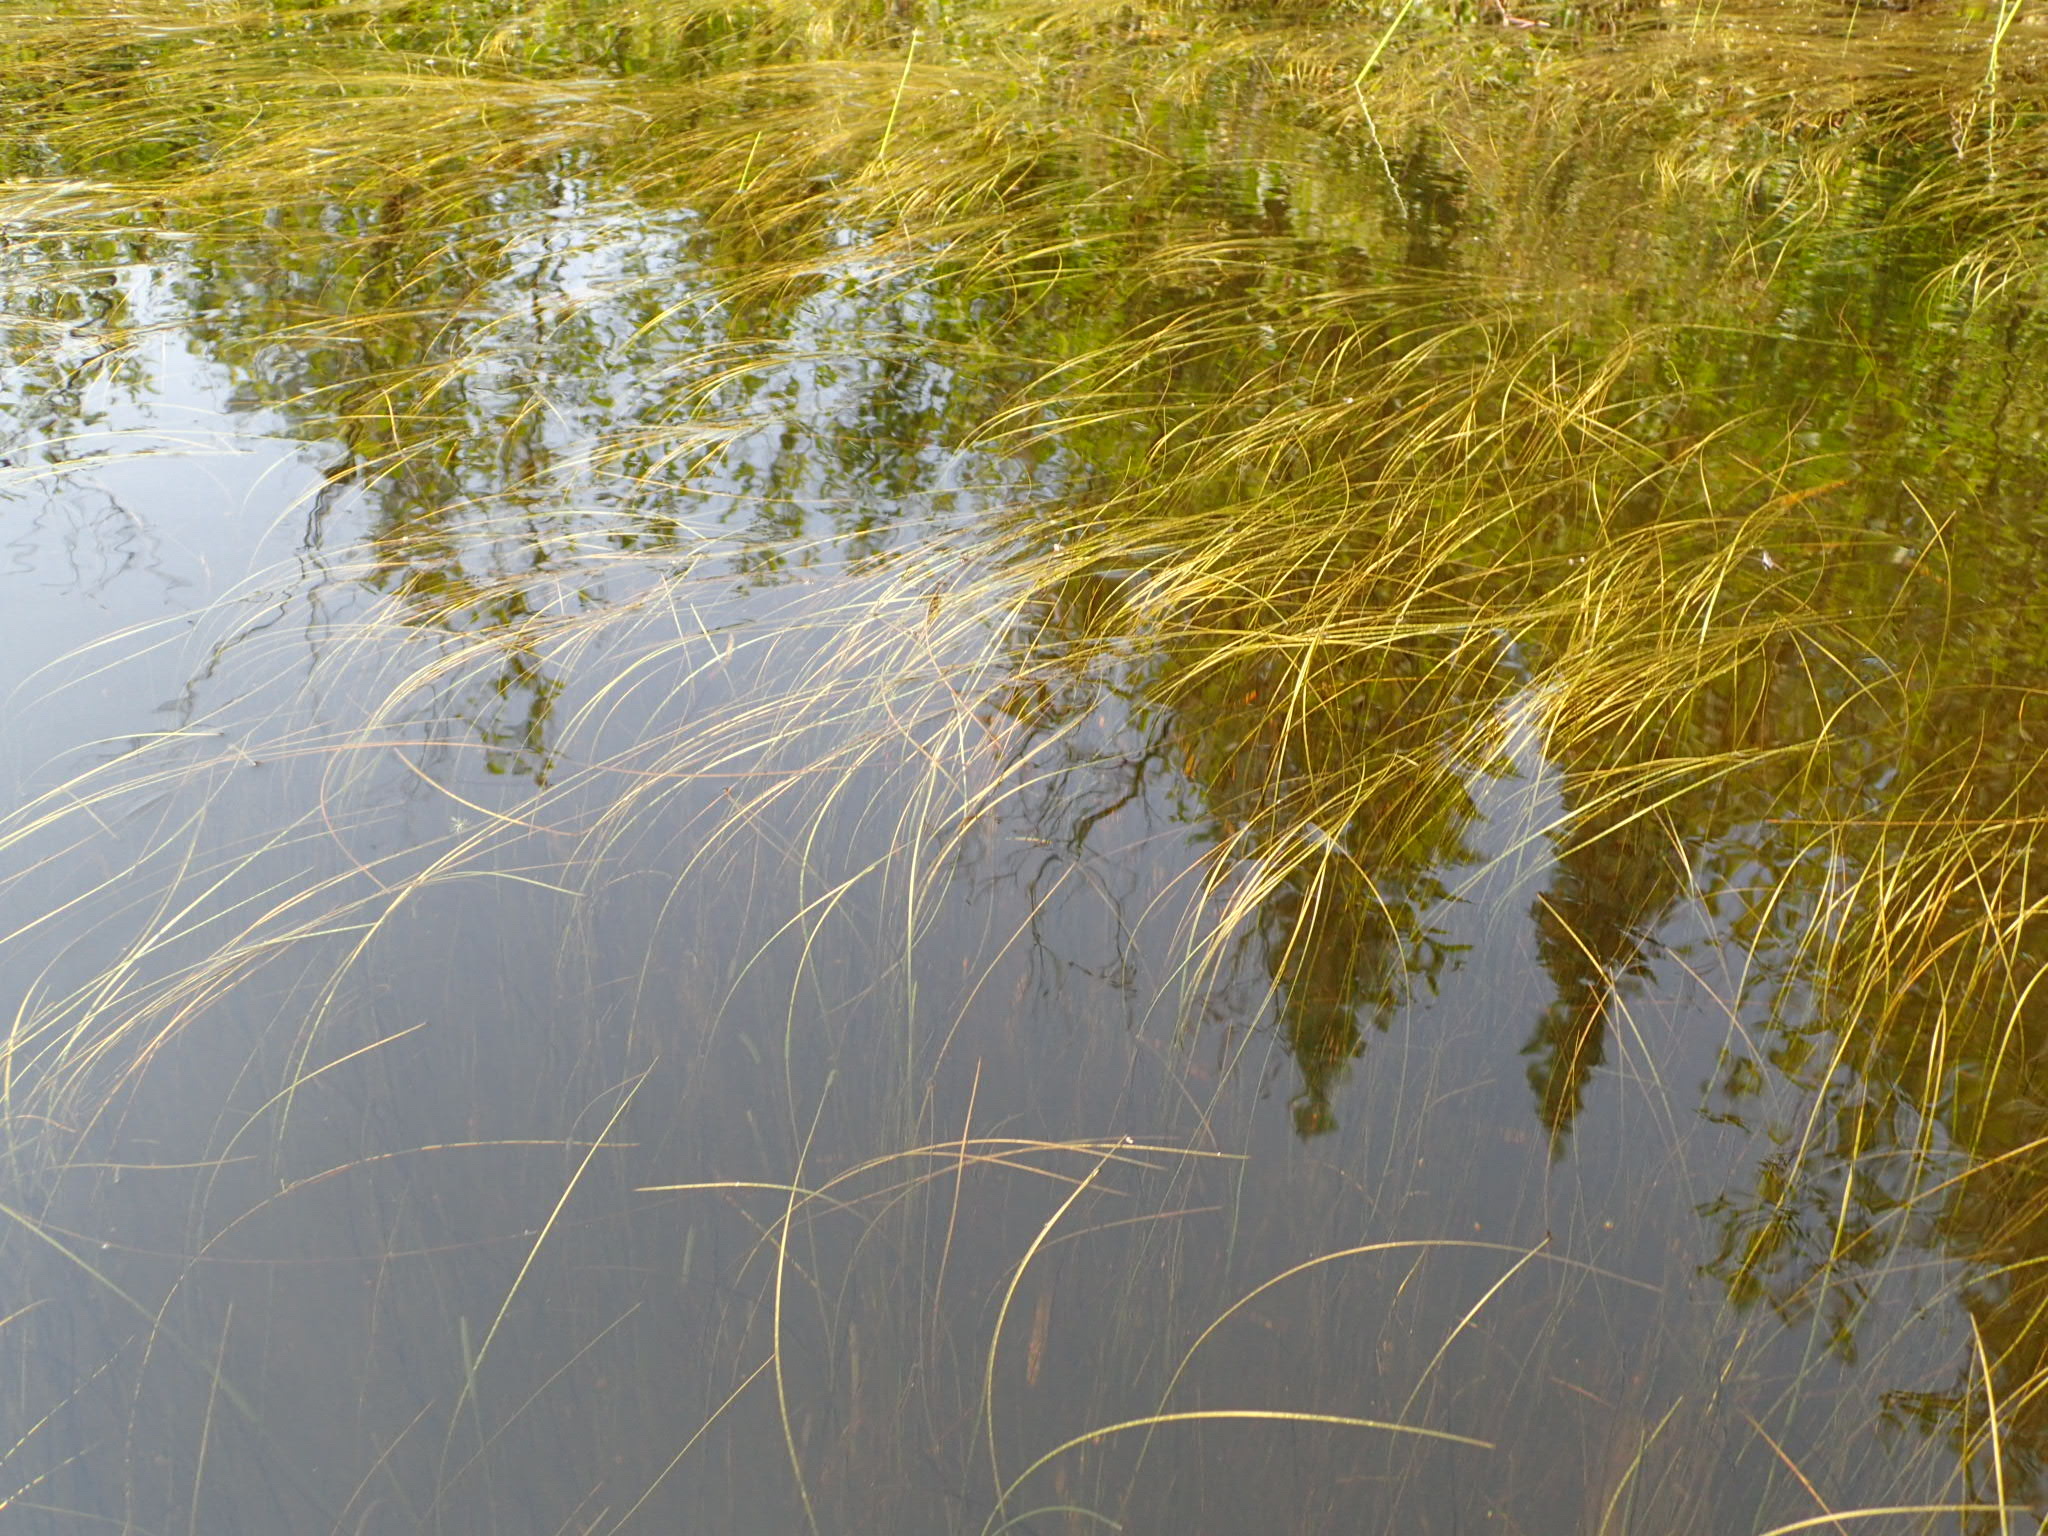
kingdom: Plantae
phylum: Tracheophyta
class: Liliopsida
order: Poales
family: Cyperaceae
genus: Schoenoplectus
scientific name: Schoenoplectus subterminalis
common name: Swaying bulrush
